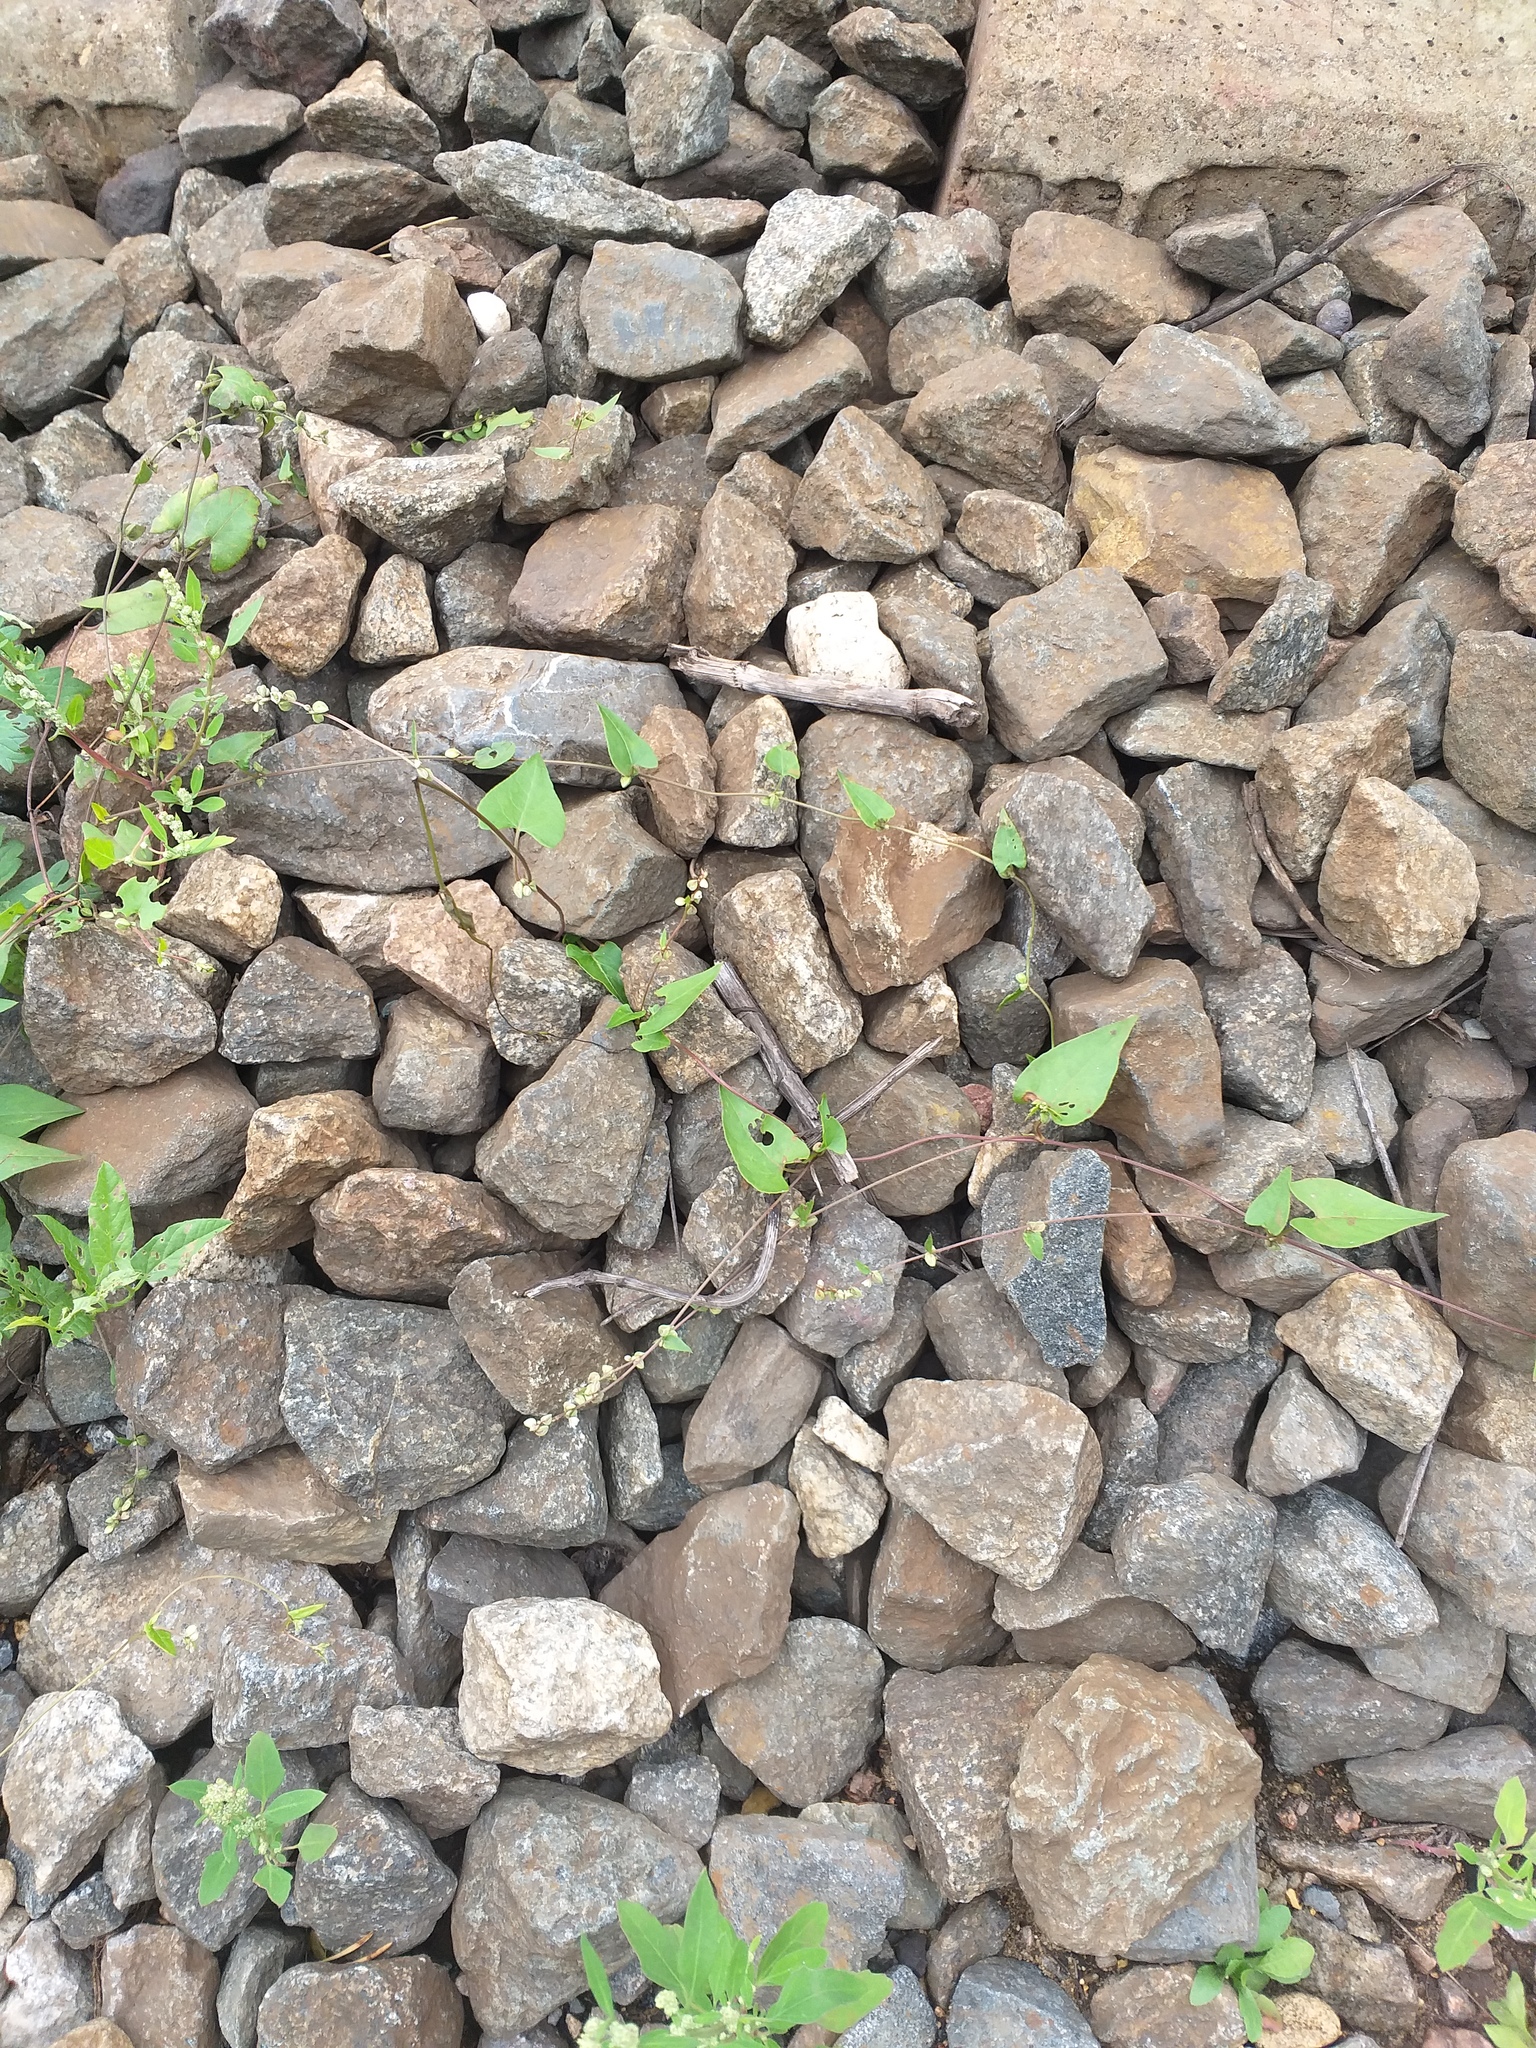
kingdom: Plantae
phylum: Tracheophyta
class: Magnoliopsida
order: Caryophyllales
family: Polygonaceae
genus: Fallopia
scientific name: Fallopia convolvulus
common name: Black bindweed
